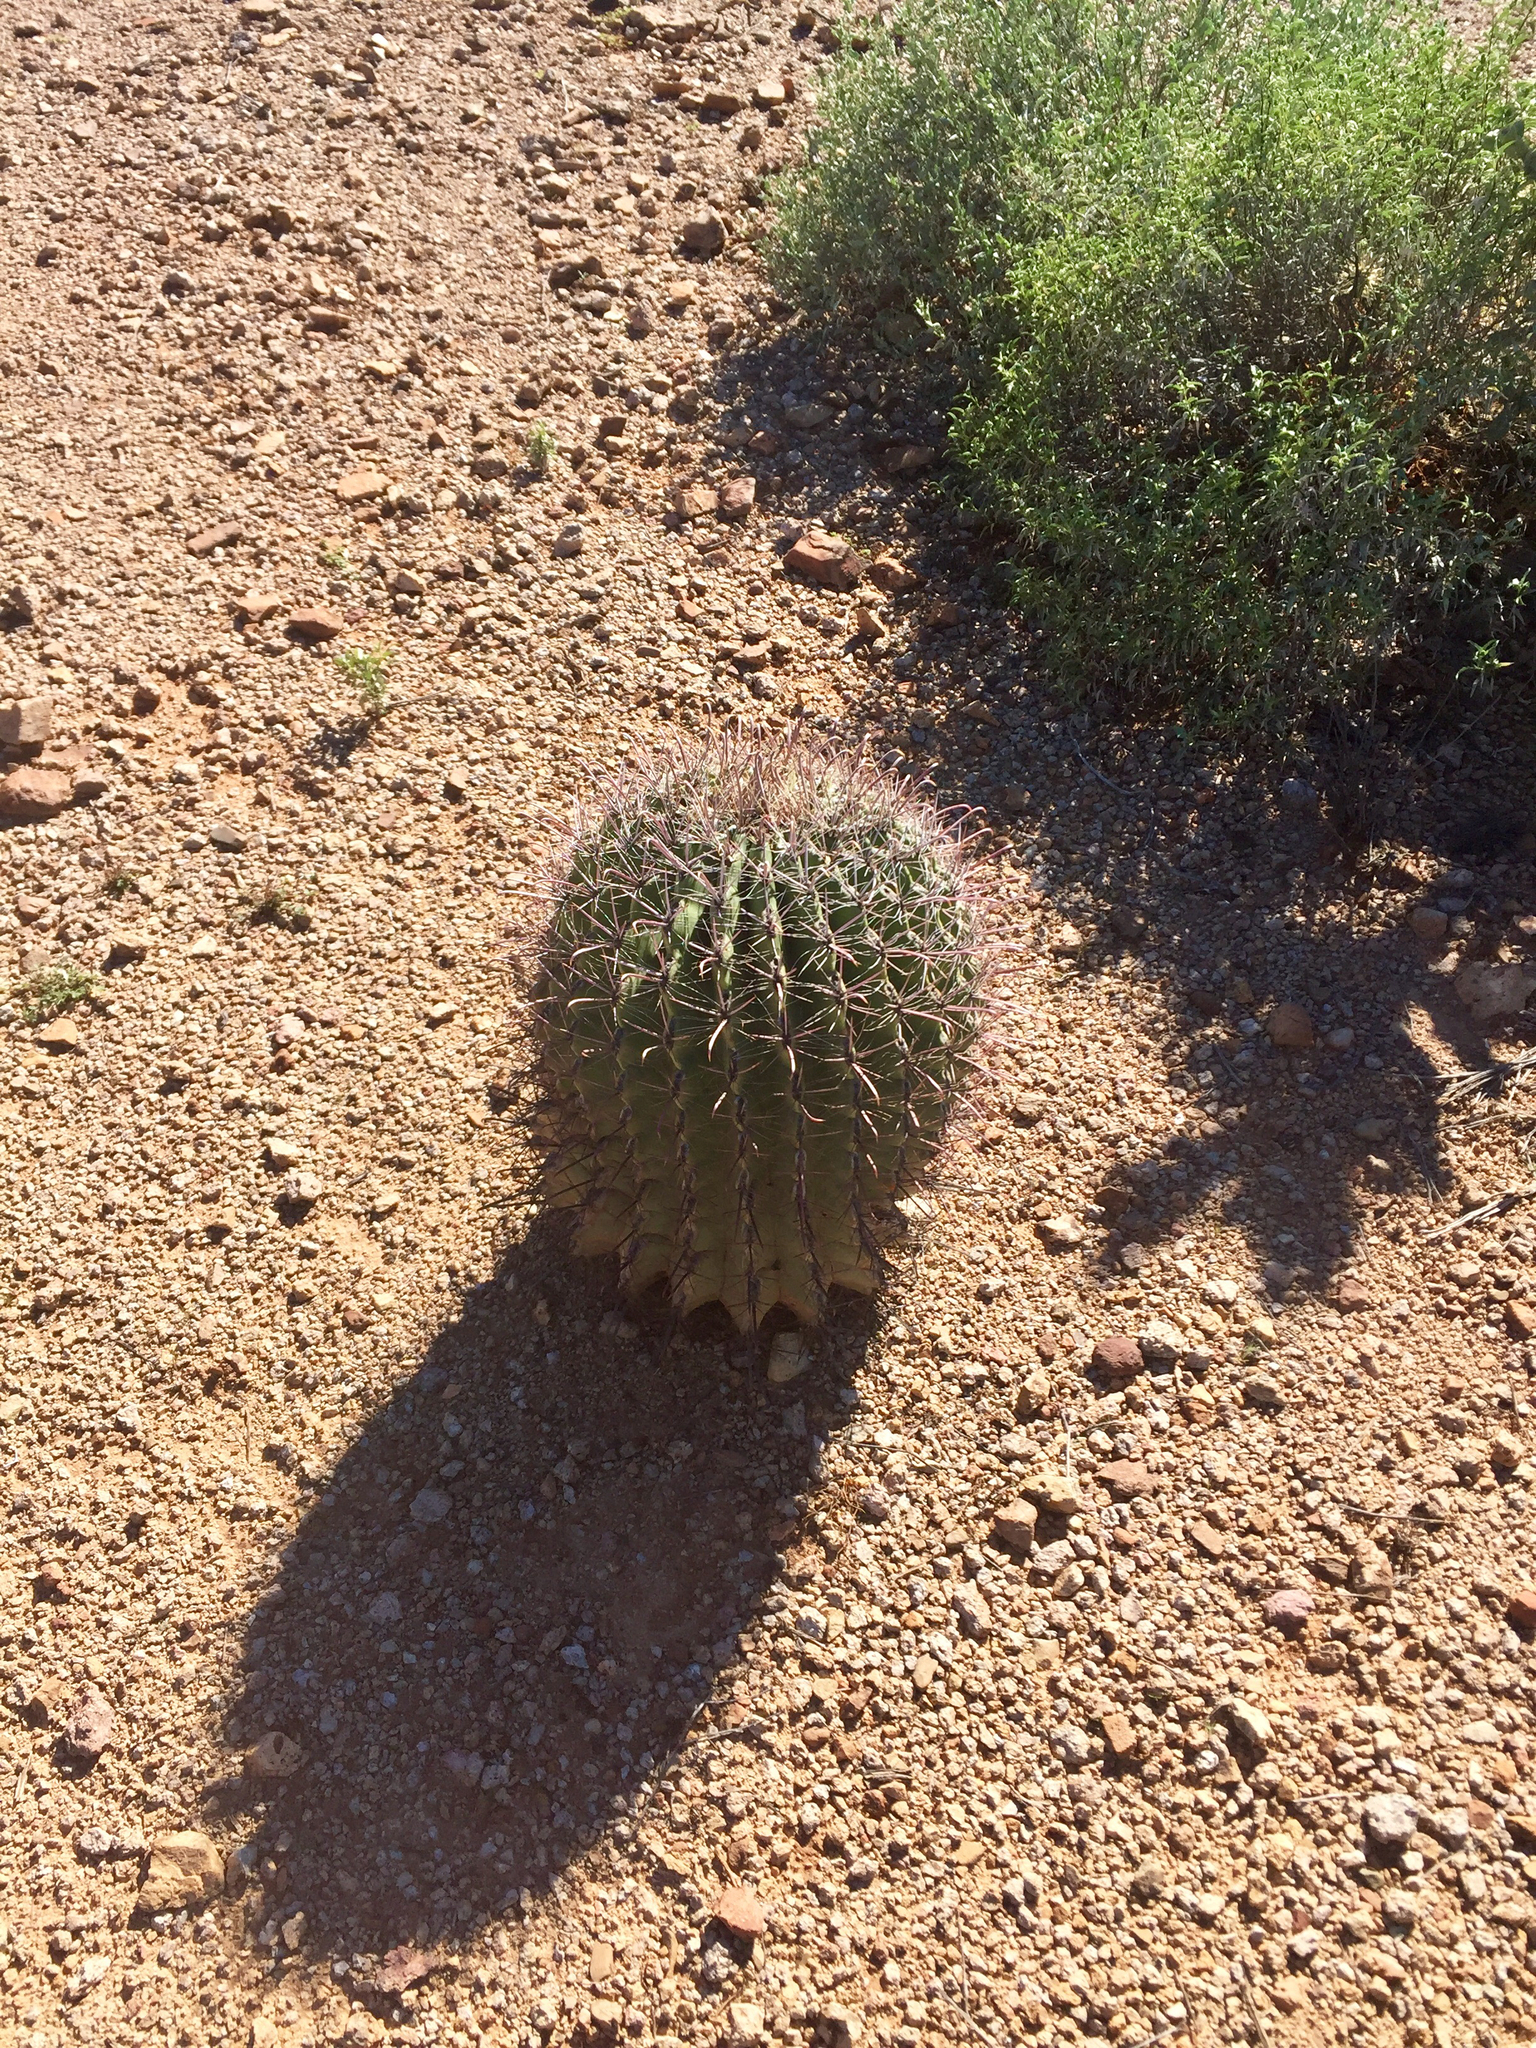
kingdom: Plantae
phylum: Tracheophyta
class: Magnoliopsida
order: Caryophyllales
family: Cactaceae
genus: Ferocactus
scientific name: Ferocactus wislizeni
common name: Candy barrel cactus
